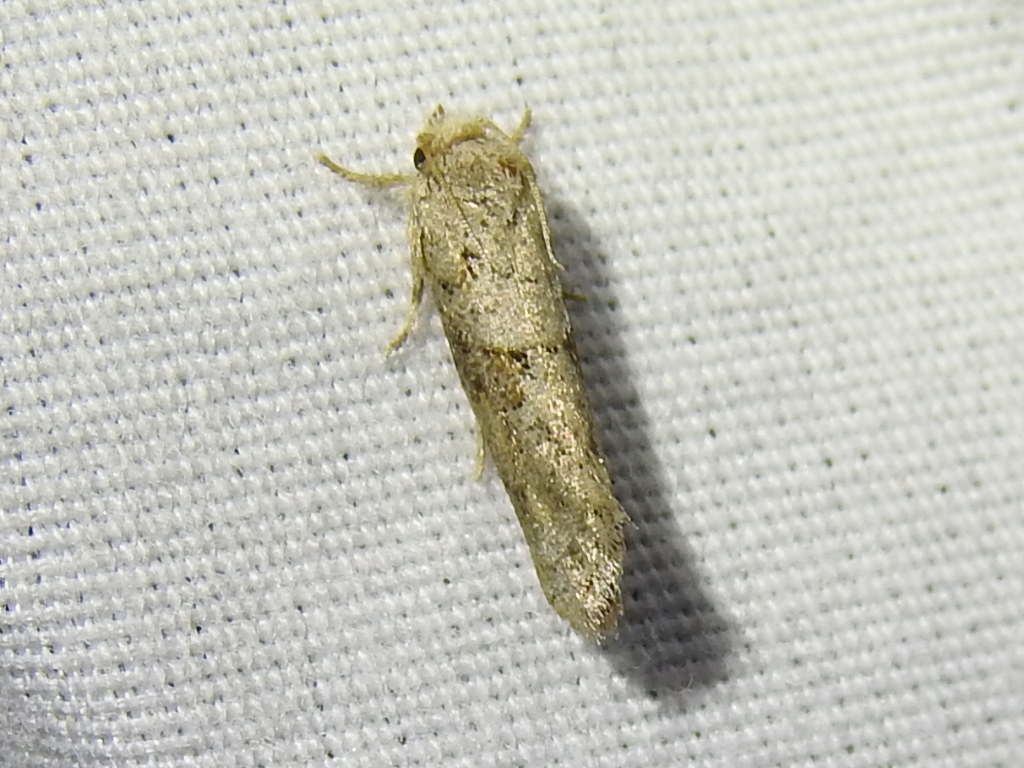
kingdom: Animalia
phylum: Arthropoda
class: Insecta
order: Lepidoptera
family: Tineidae
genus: Acrolophus
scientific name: Acrolophus piger
